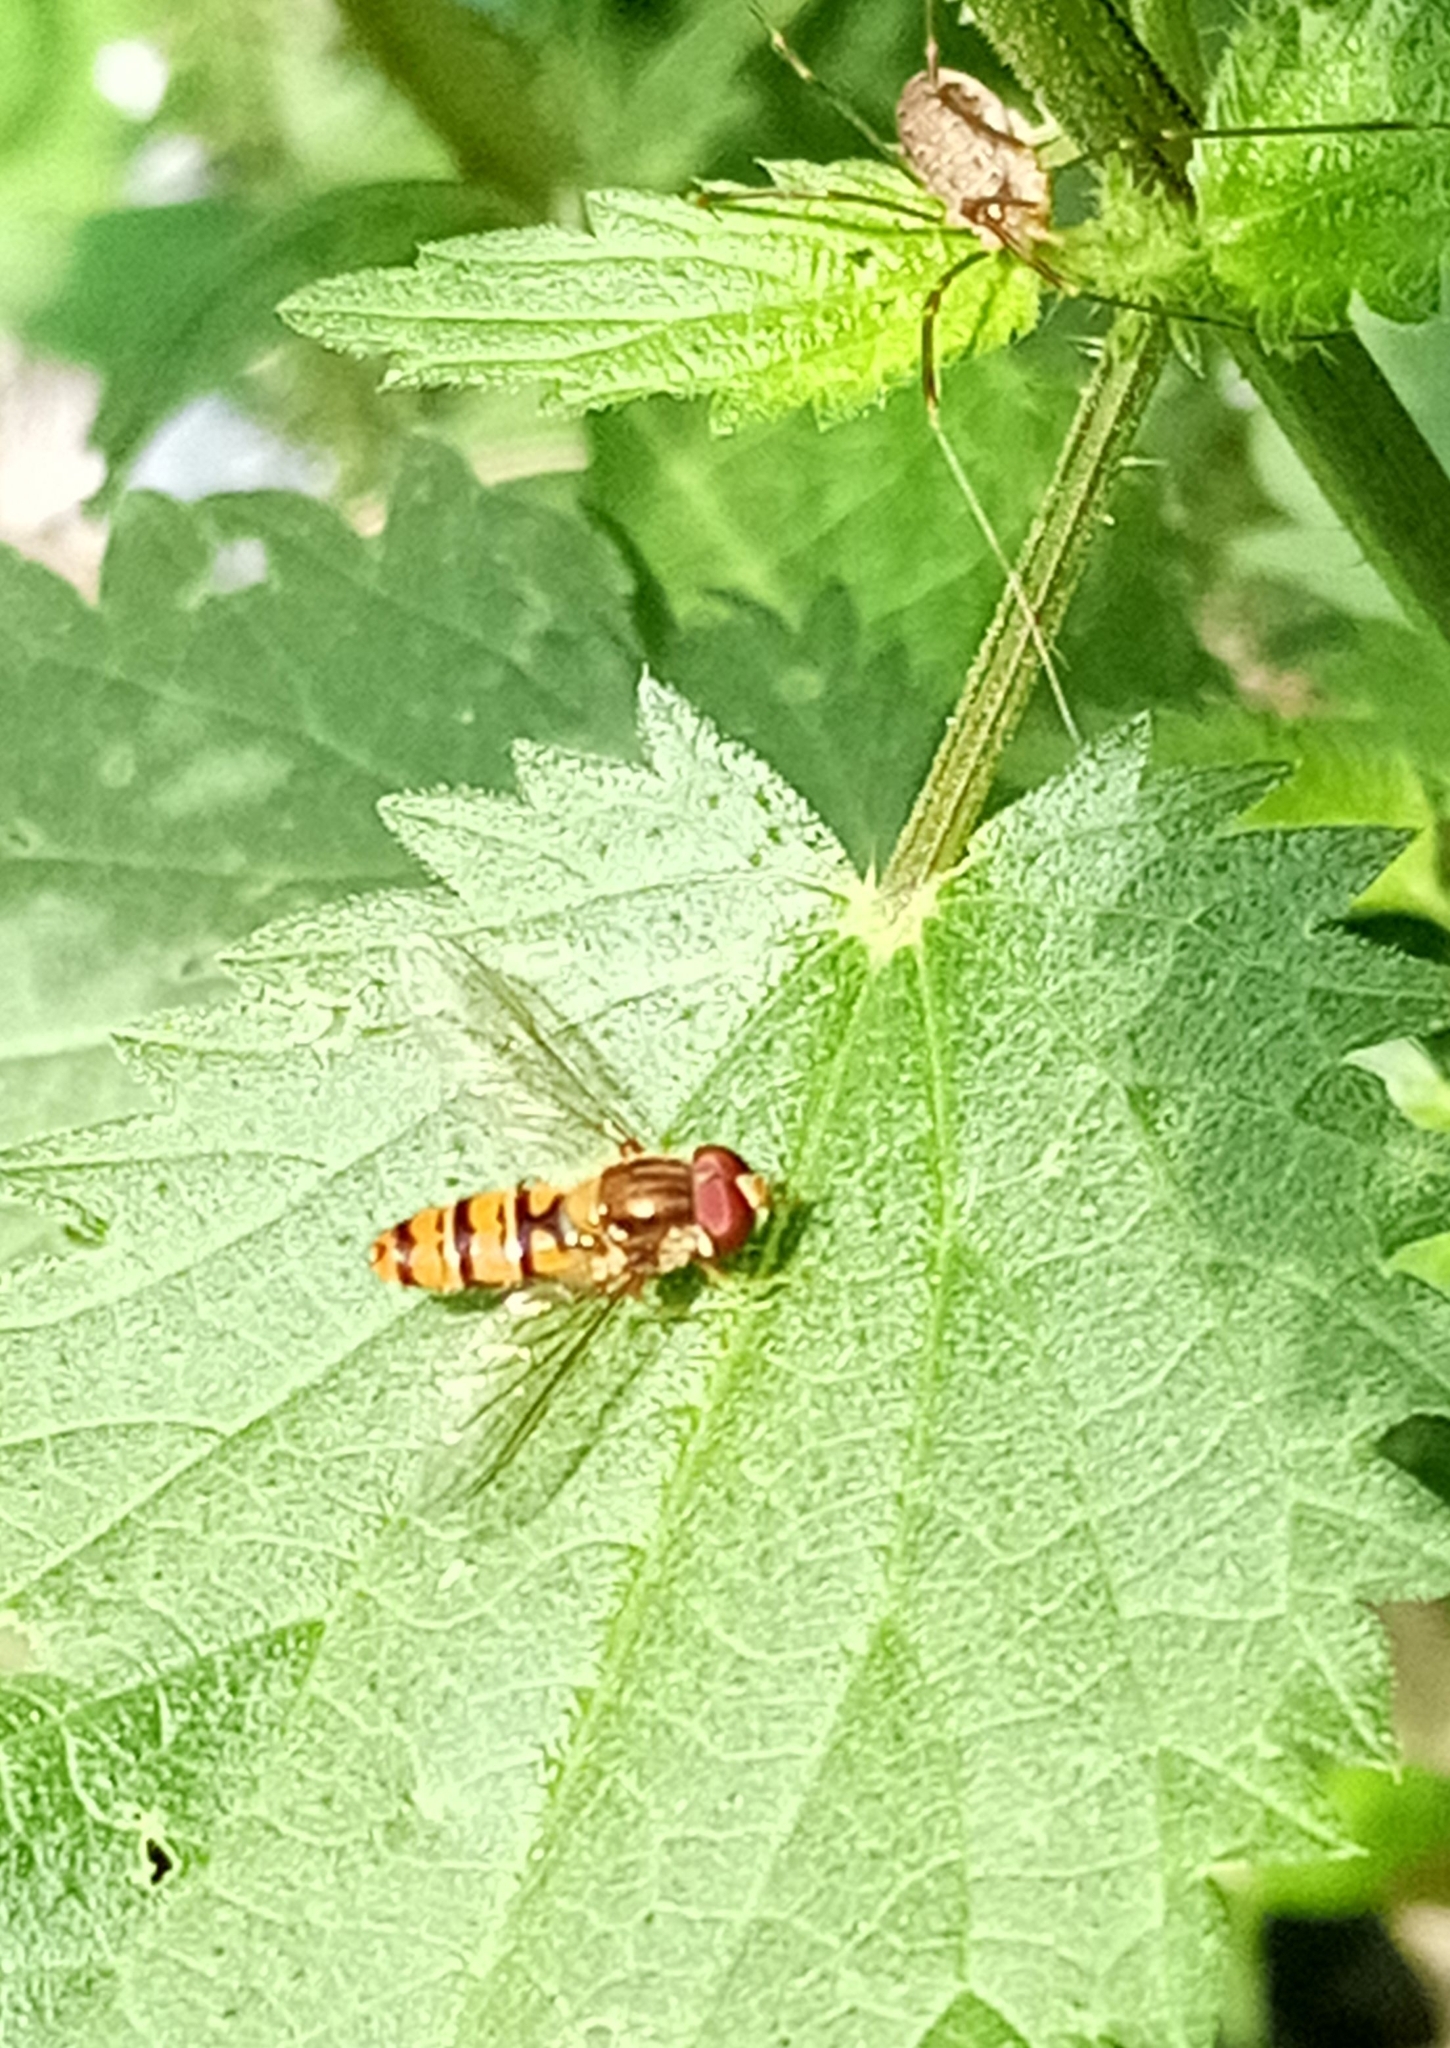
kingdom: Animalia
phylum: Arthropoda
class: Insecta
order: Diptera
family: Syrphidae
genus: Episyrphus
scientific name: Episyrphus balteatus
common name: Marmalade hoverfly
